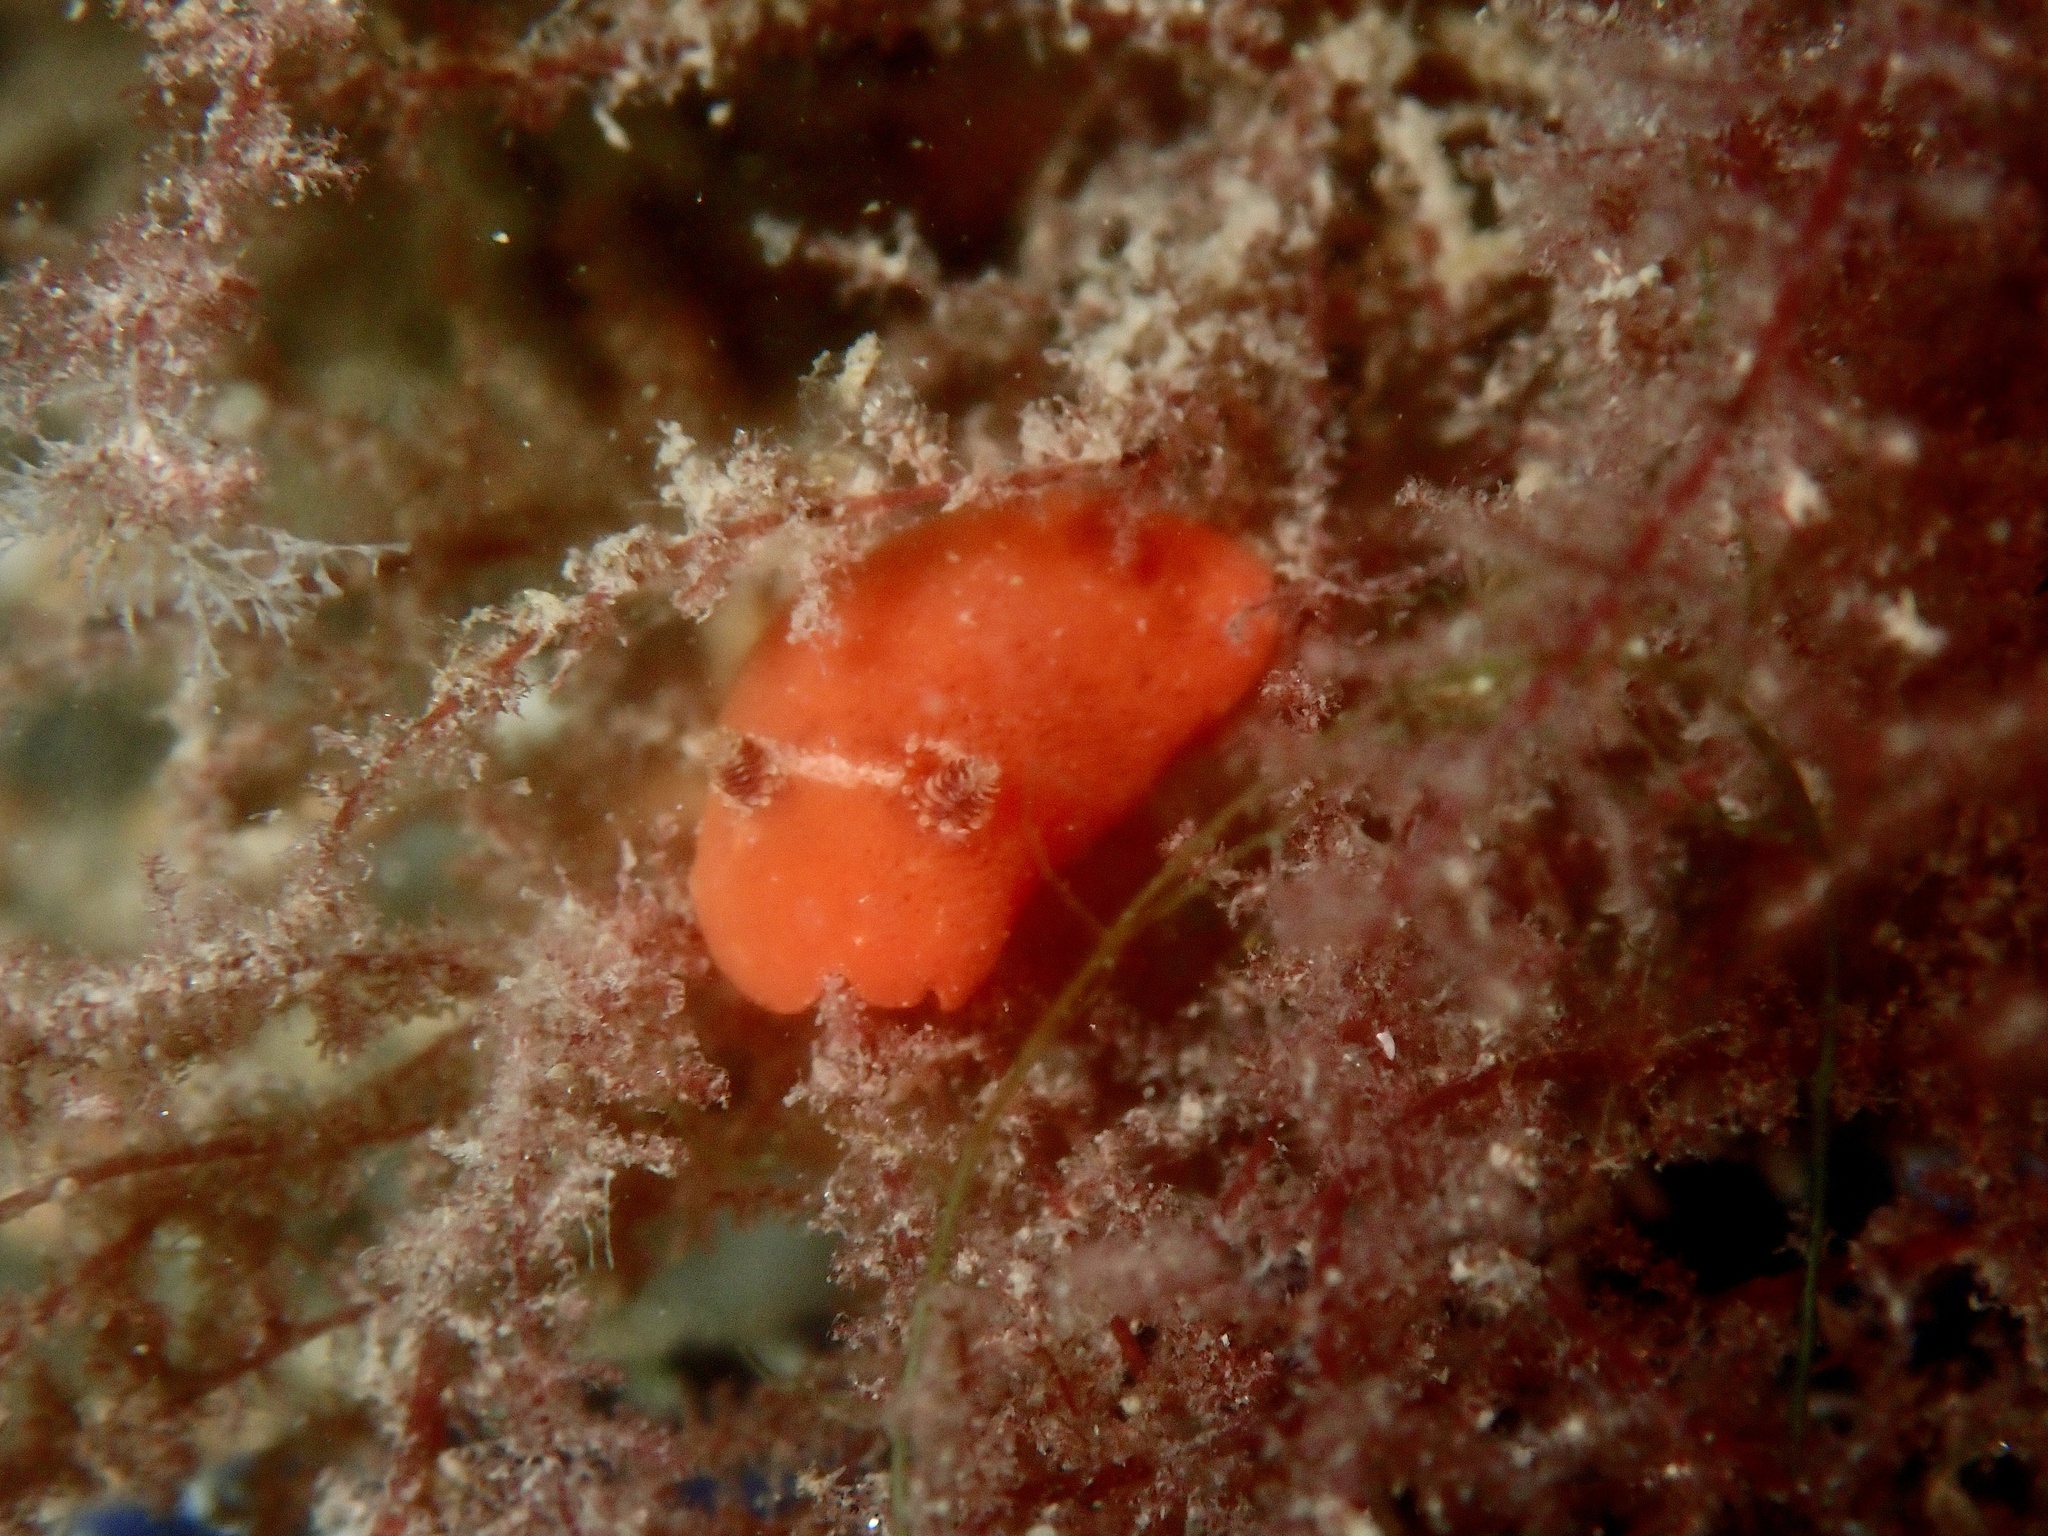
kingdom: Animalia
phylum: Mollusca
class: Gastropoda
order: Nudibranchia
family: Discodorididae
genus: Rostanga
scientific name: Rostanga rubra
